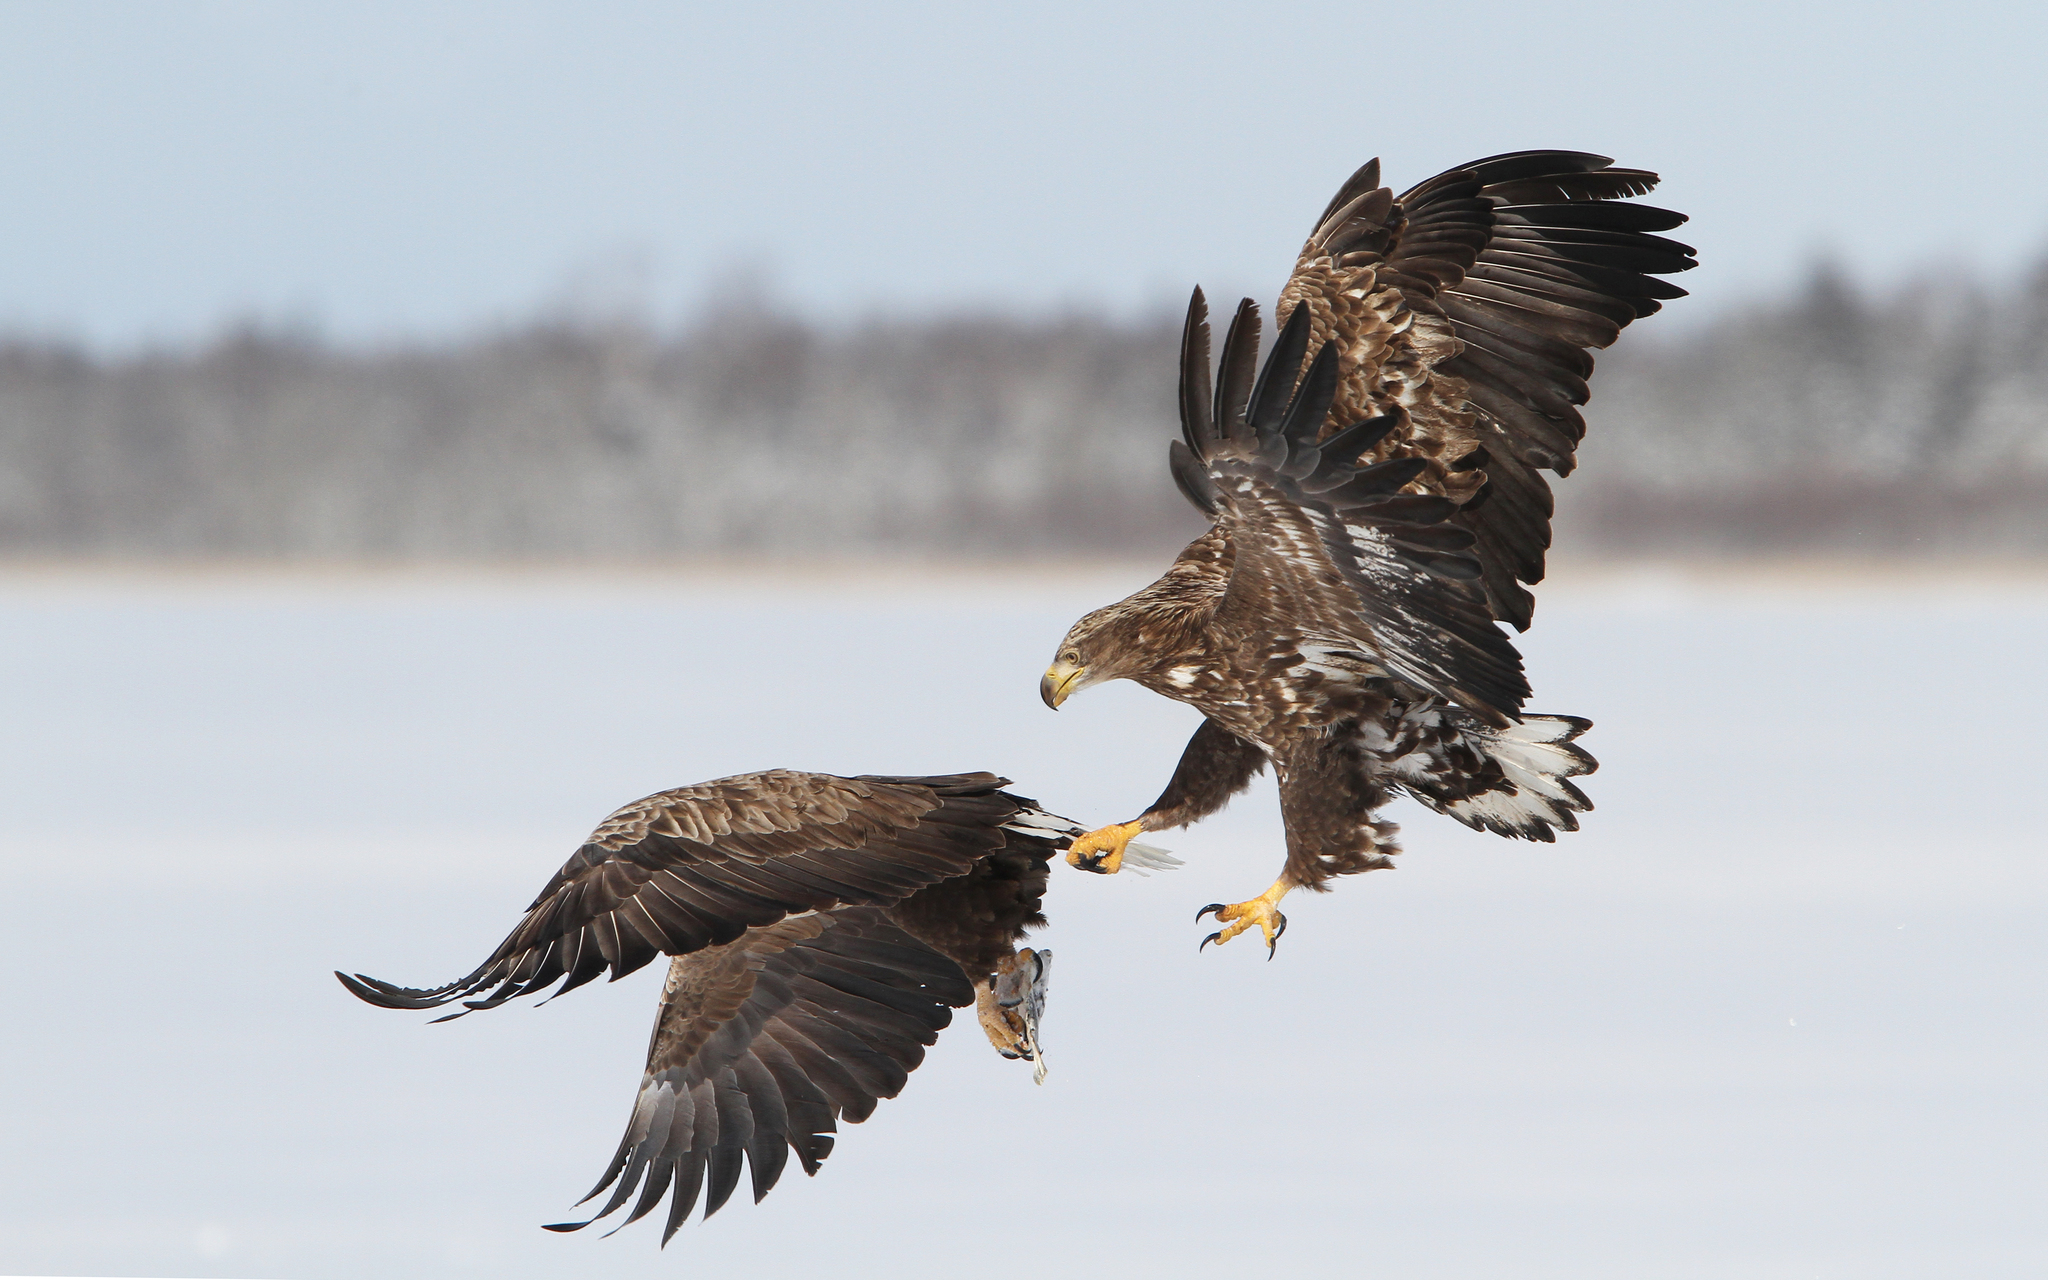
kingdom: Animalia
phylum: Chordata
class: Aves
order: Accipitriformes
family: Accipitridae
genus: Haliaeetus
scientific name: Haliaeetus albicilla
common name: White-tailed eagle
